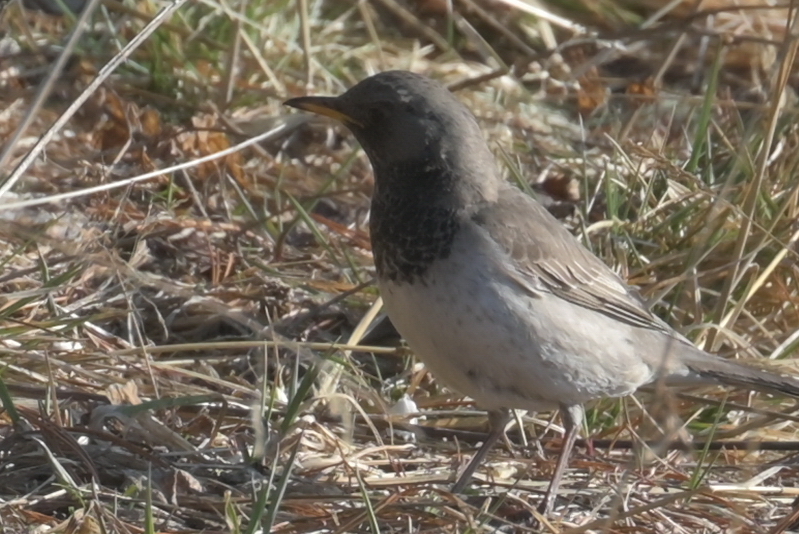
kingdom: Animalia
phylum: Chordata
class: Aves
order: Passeriformes
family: Turdidae
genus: Turdus
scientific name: Turdus atrogularis
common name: Black-throated thrush
